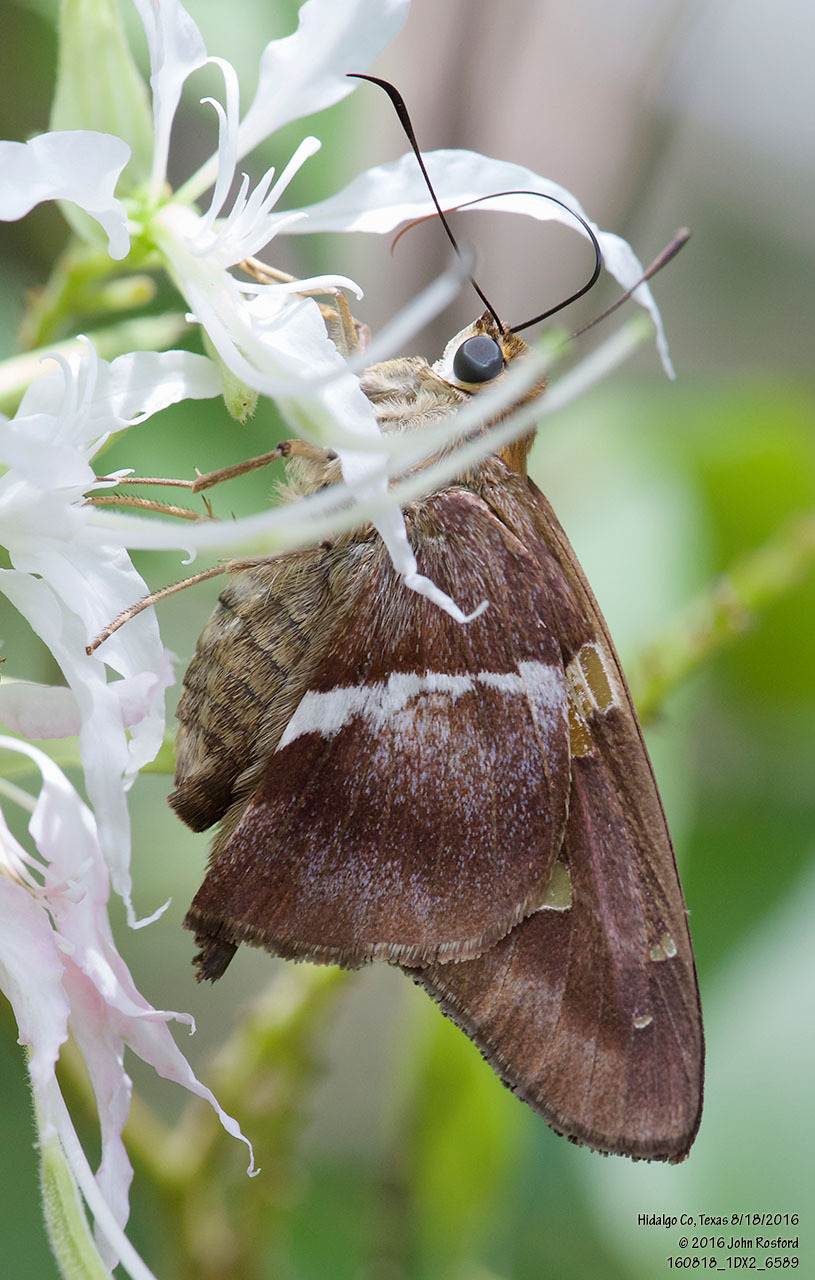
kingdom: Animalia
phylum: Arthropoda
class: Insecta
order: Lepidoptera
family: Hesperiidae
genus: Aguna
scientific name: Aguna asander
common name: Gold-spotted aguna
